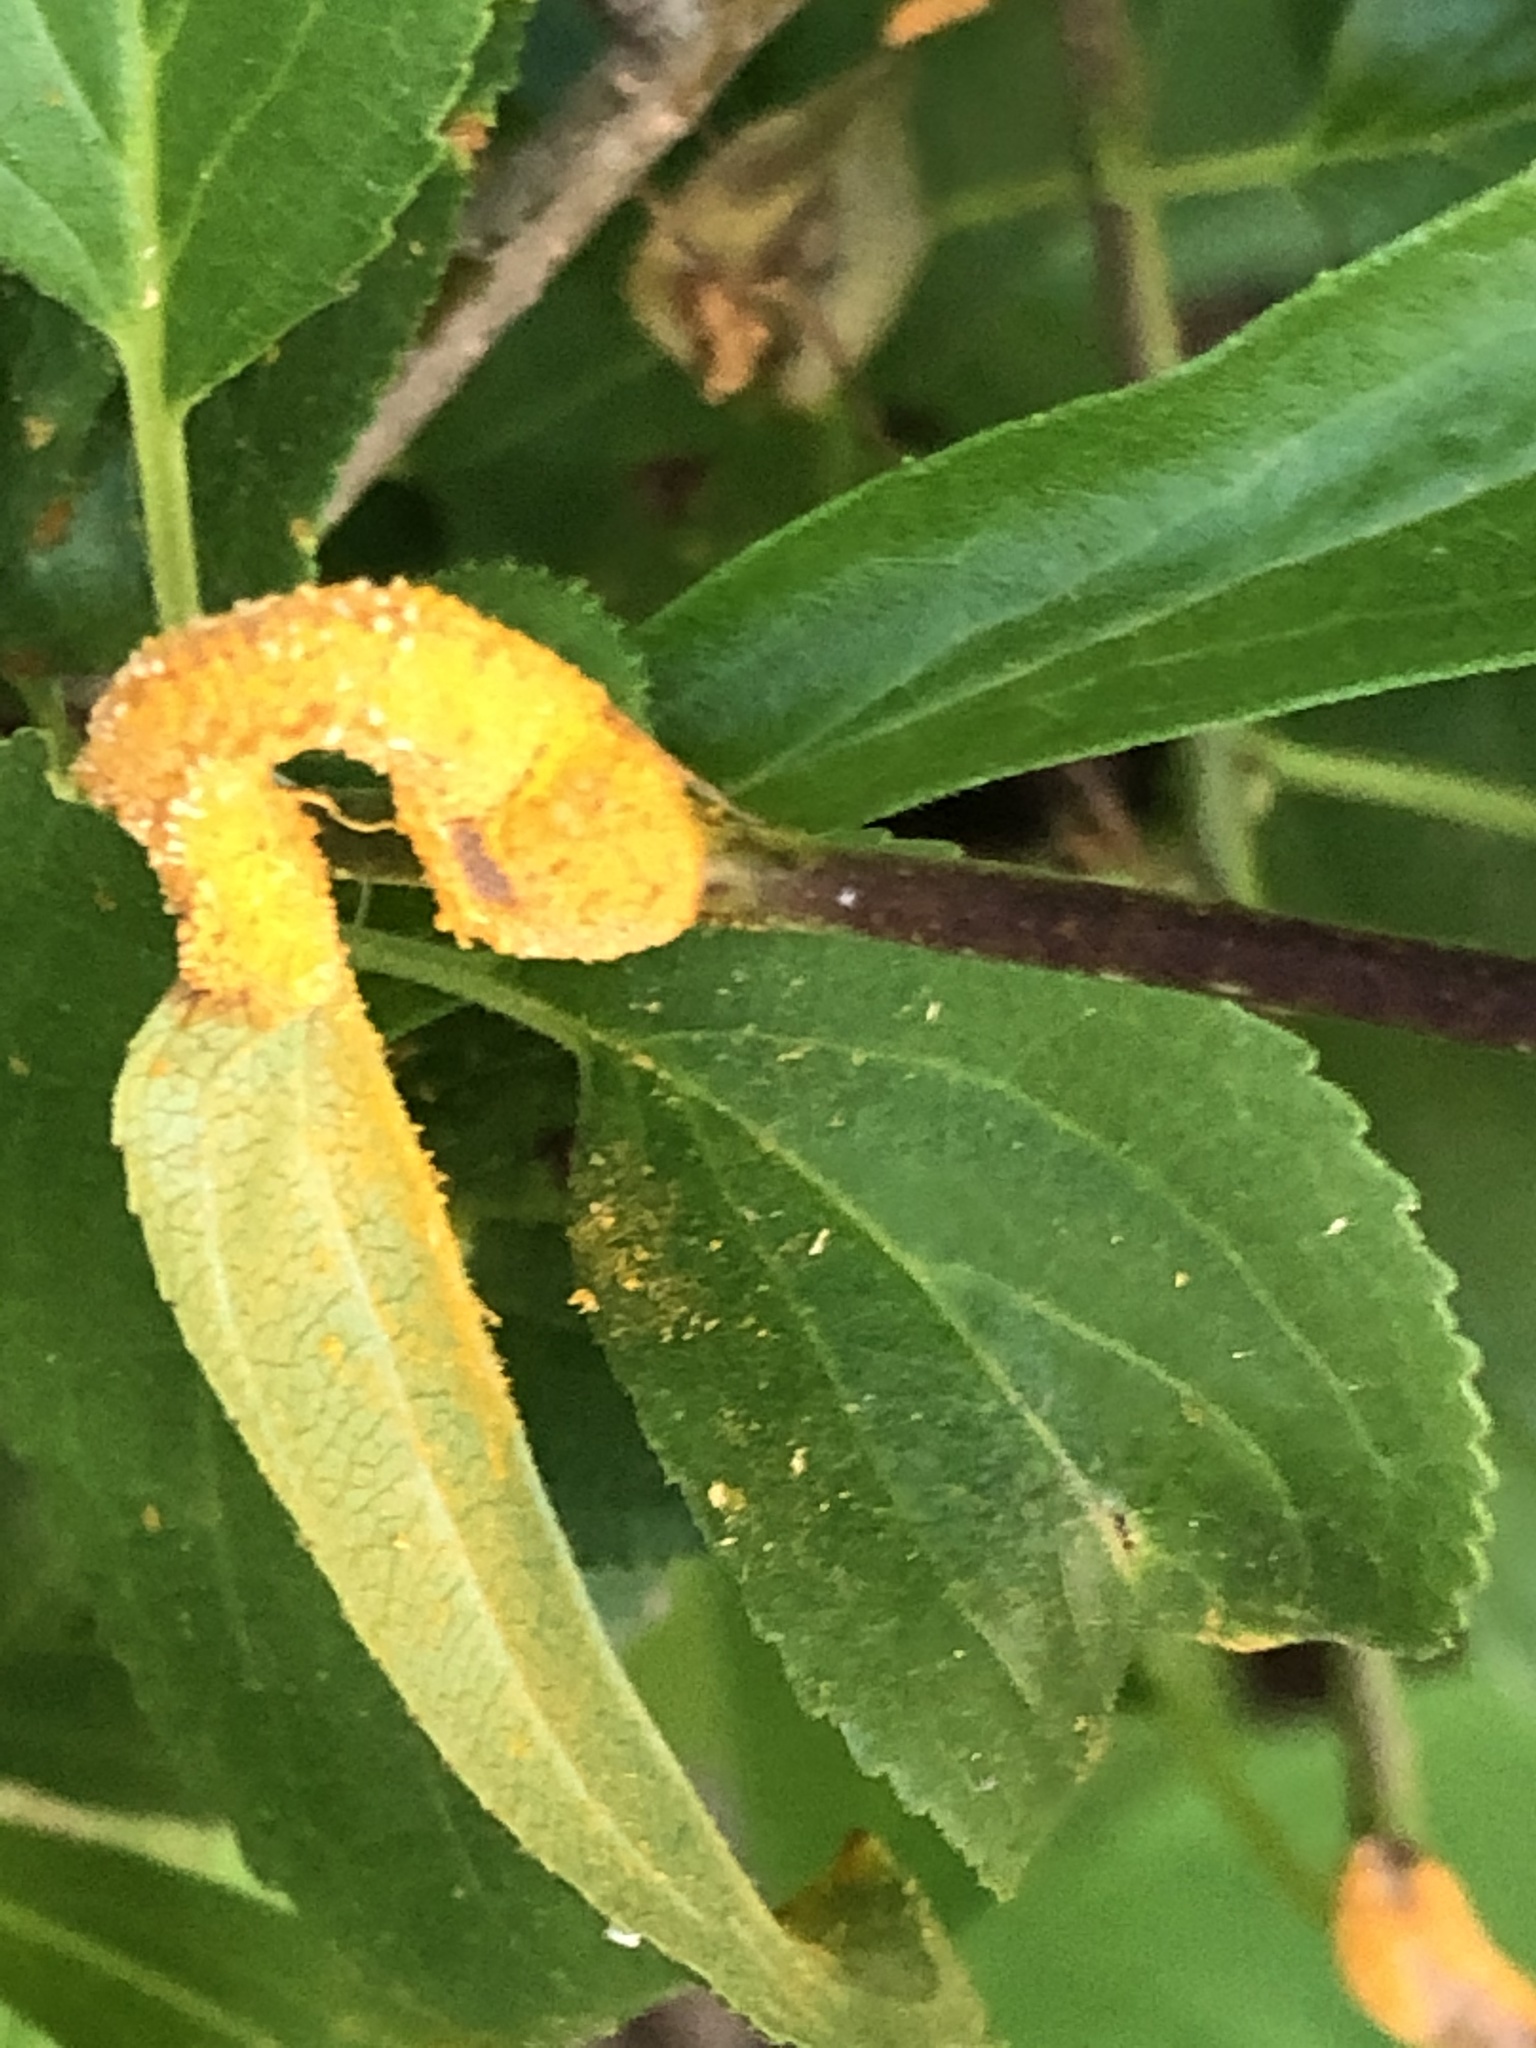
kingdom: Fungi
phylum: Basidiomycota
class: Pucciniomycetes
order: Pucciniales
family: Pucciniaceae
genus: Puccinia
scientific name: Puccinia coronata
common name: Crown rust
